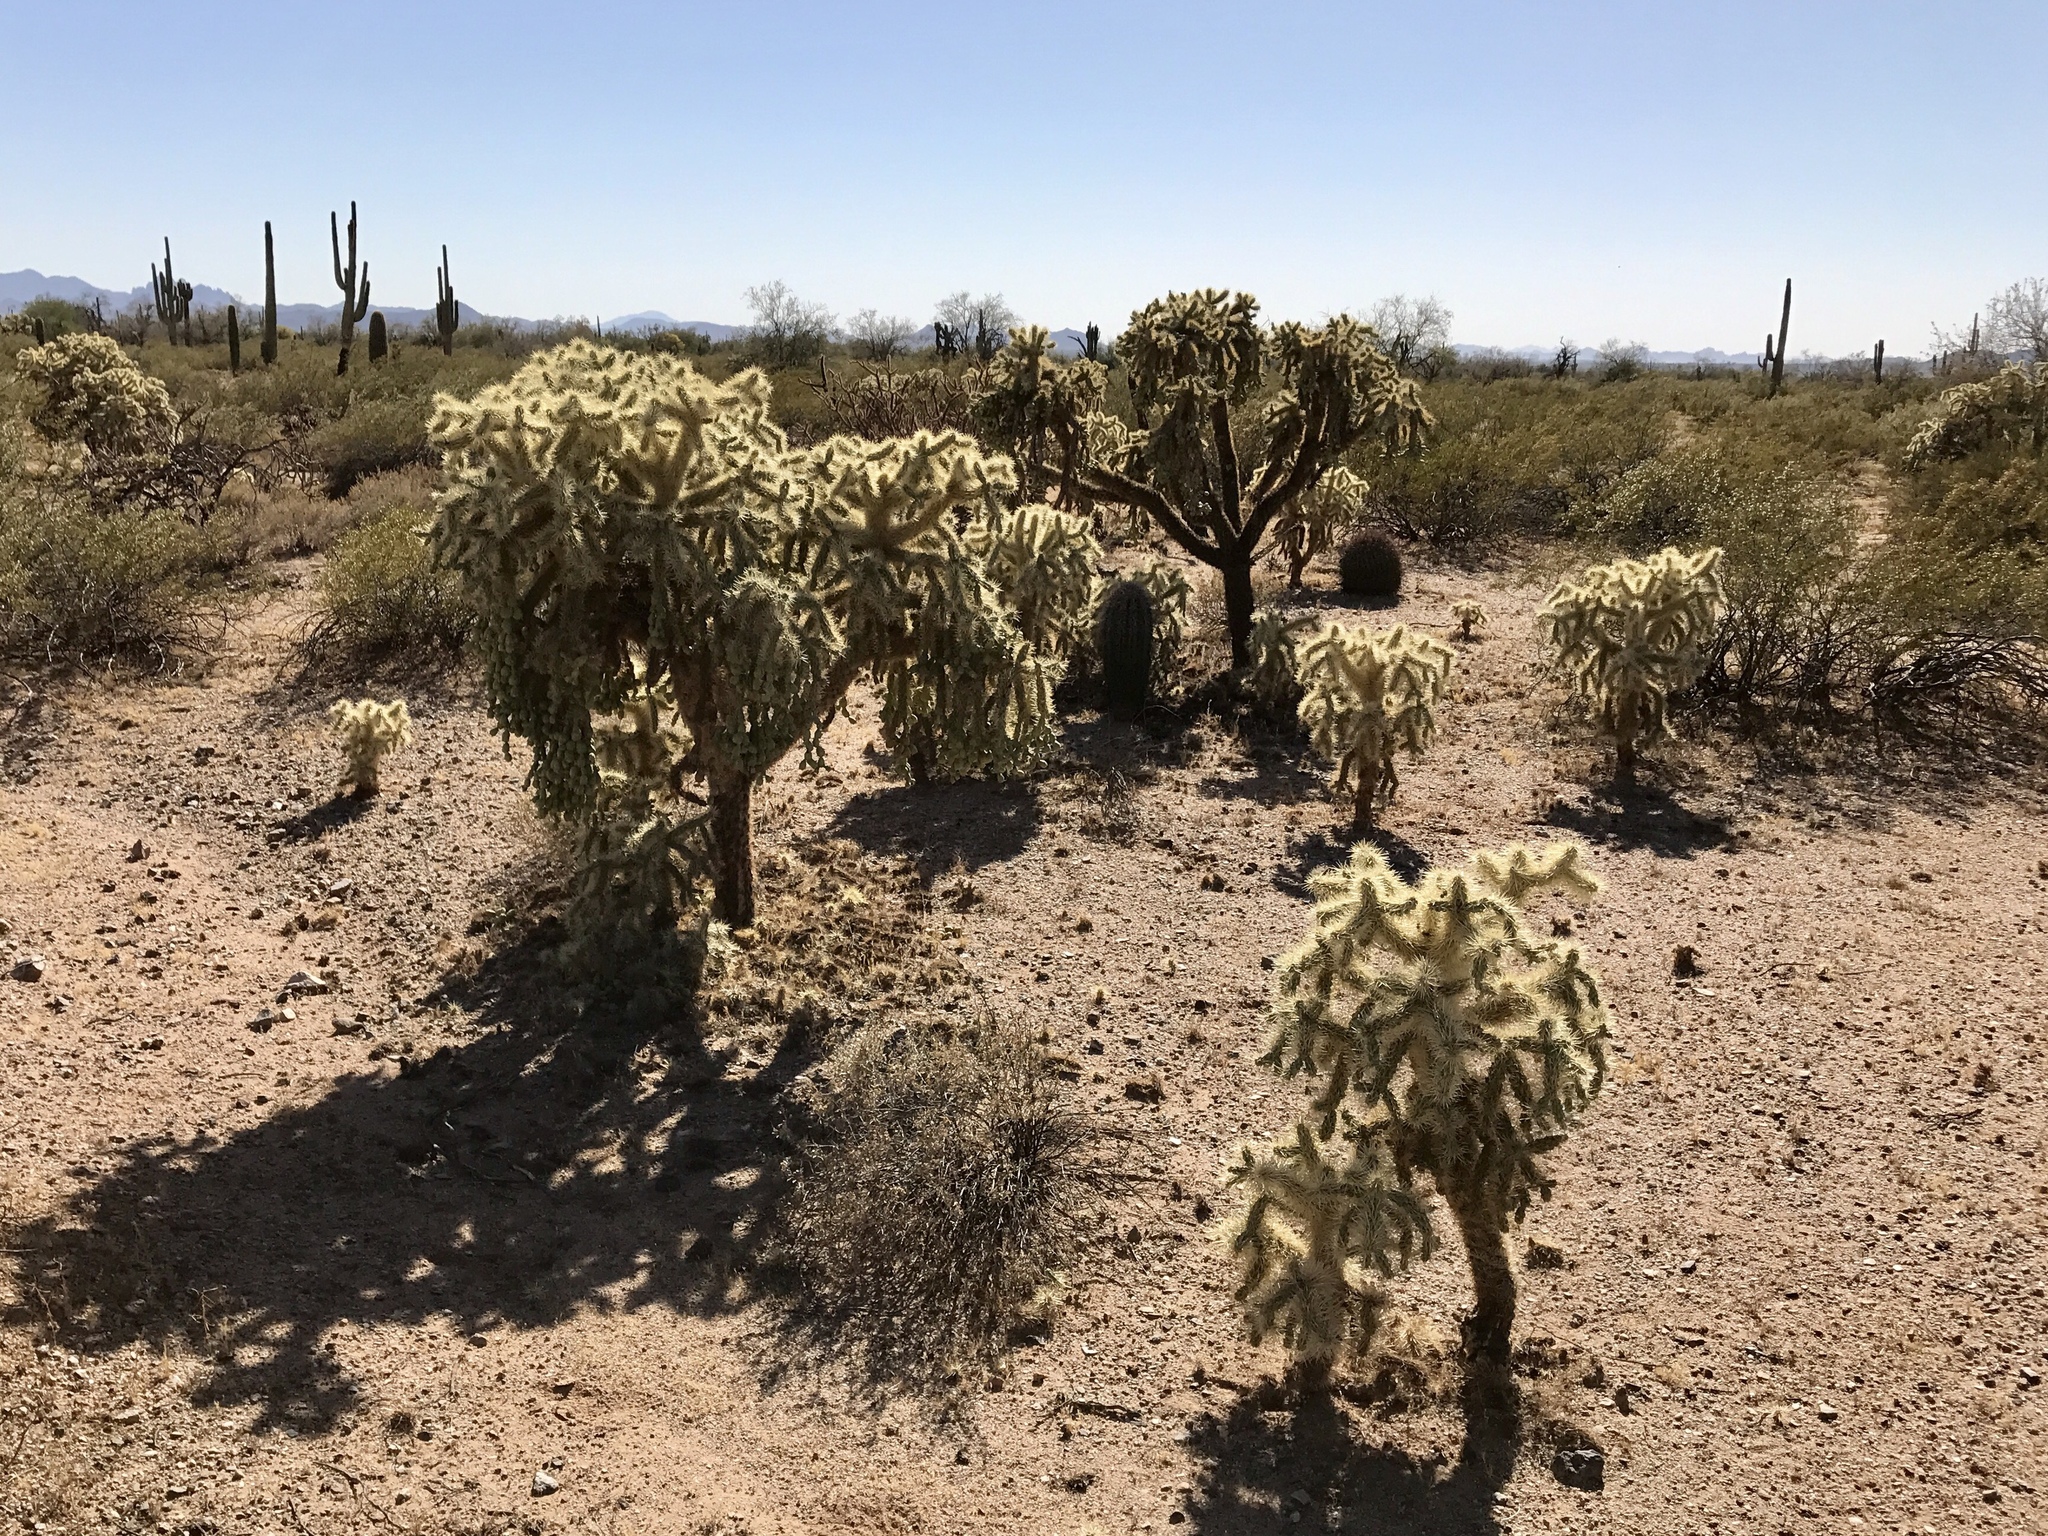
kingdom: Plantae
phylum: Tracheophyta
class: Magnoliopsida
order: Caryophyllales
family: Cactaceae
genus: Cylindropuntia
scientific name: Cylindropuntia fulgida
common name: Jumping cholla
